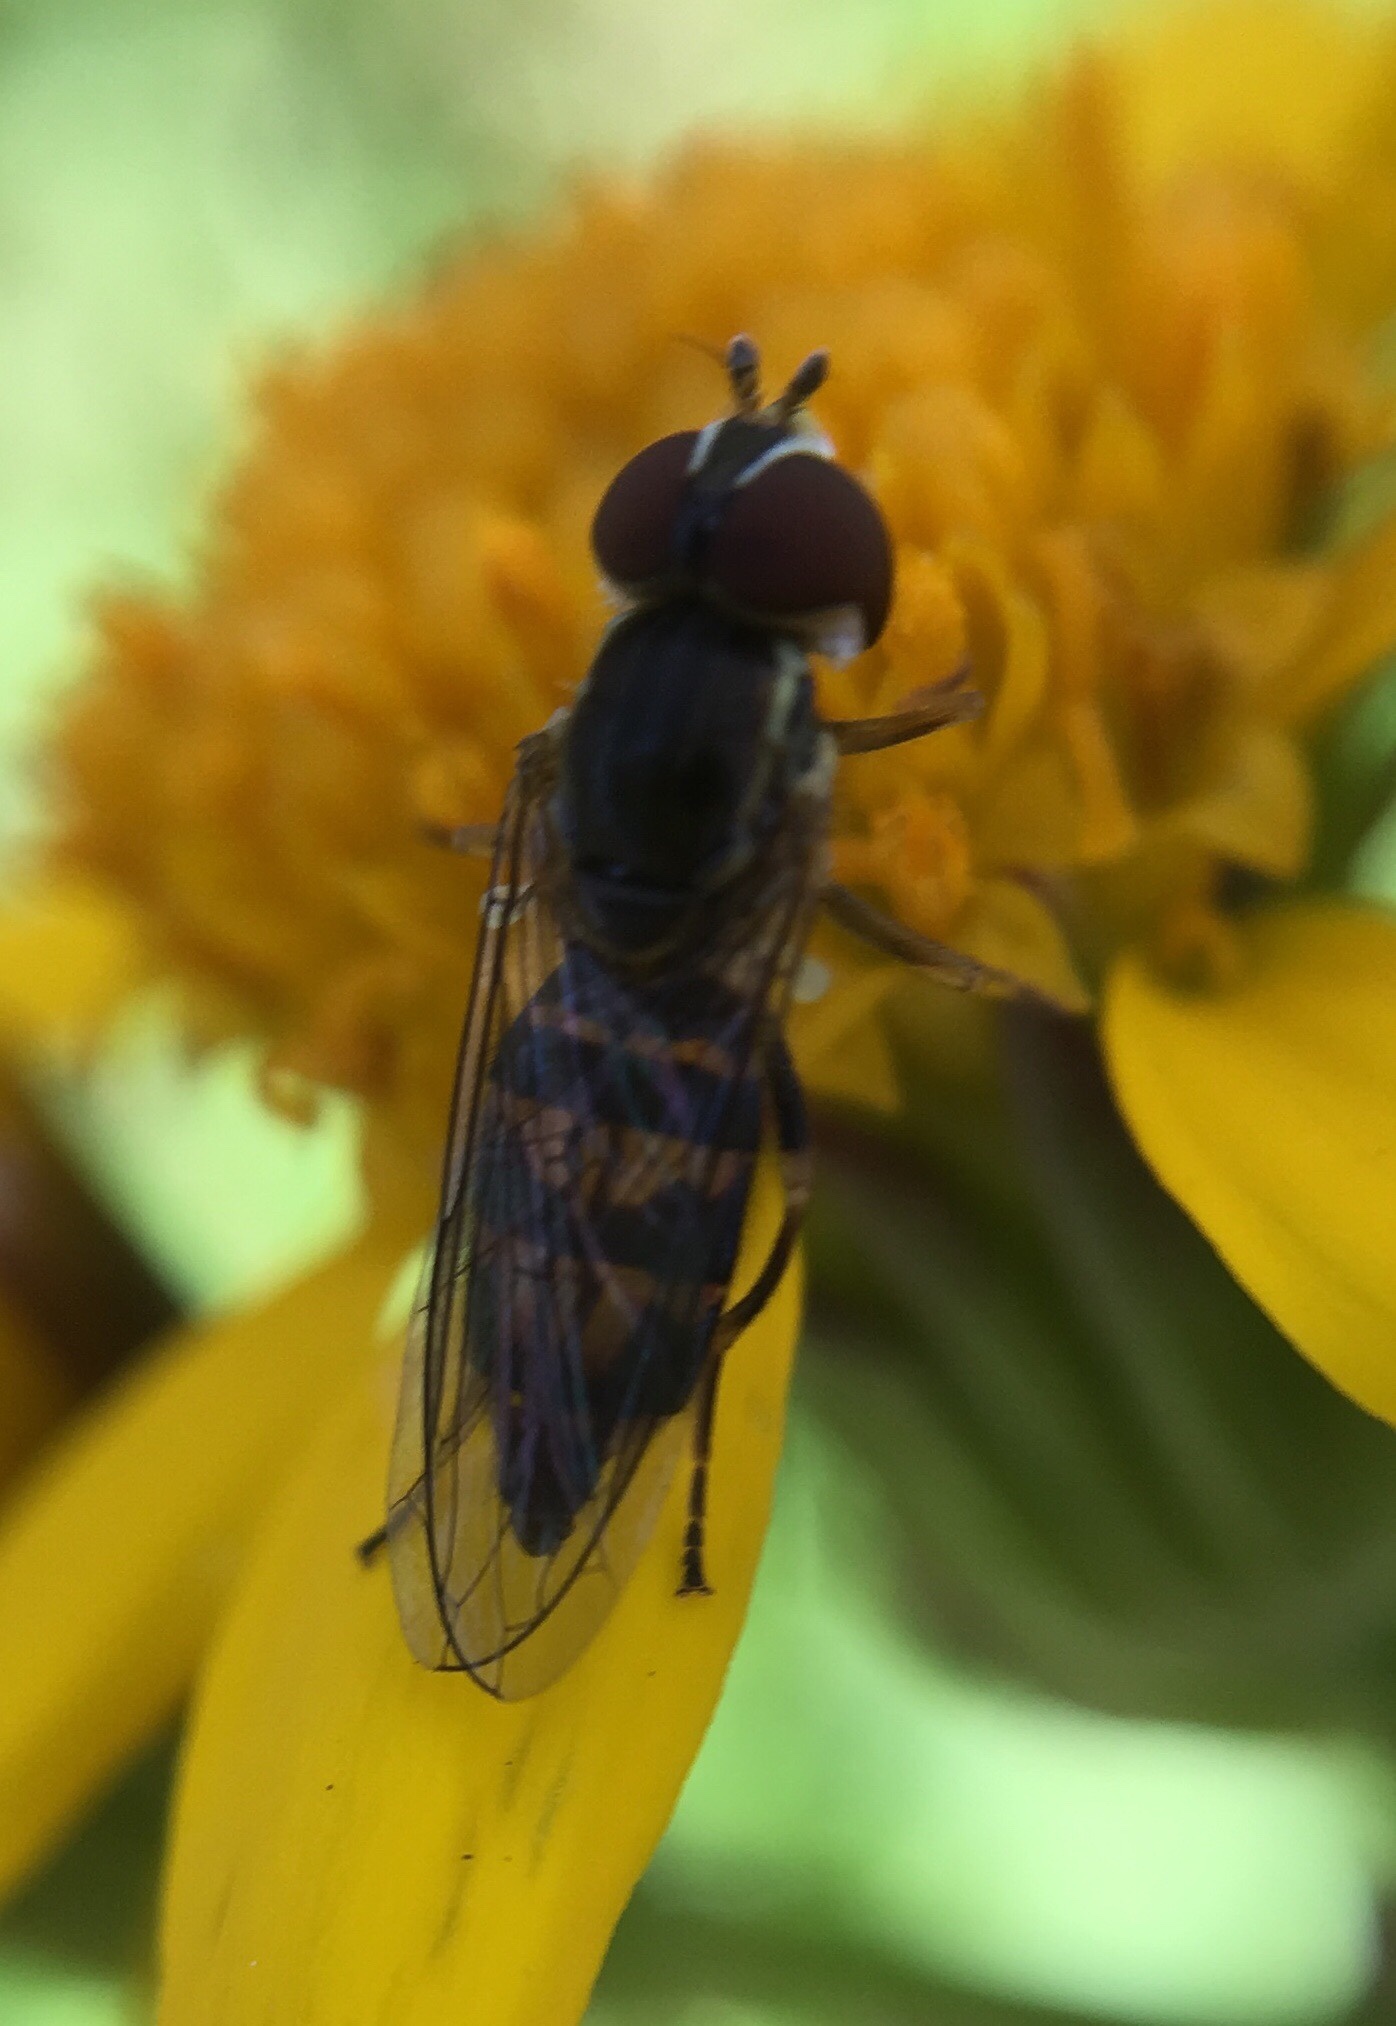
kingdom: Animalia
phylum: Arthropoda
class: Insecta
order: Diptera
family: Syrphidae
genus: Toxomerus
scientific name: Toxomerus geminatus
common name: Eastern calligrapher
